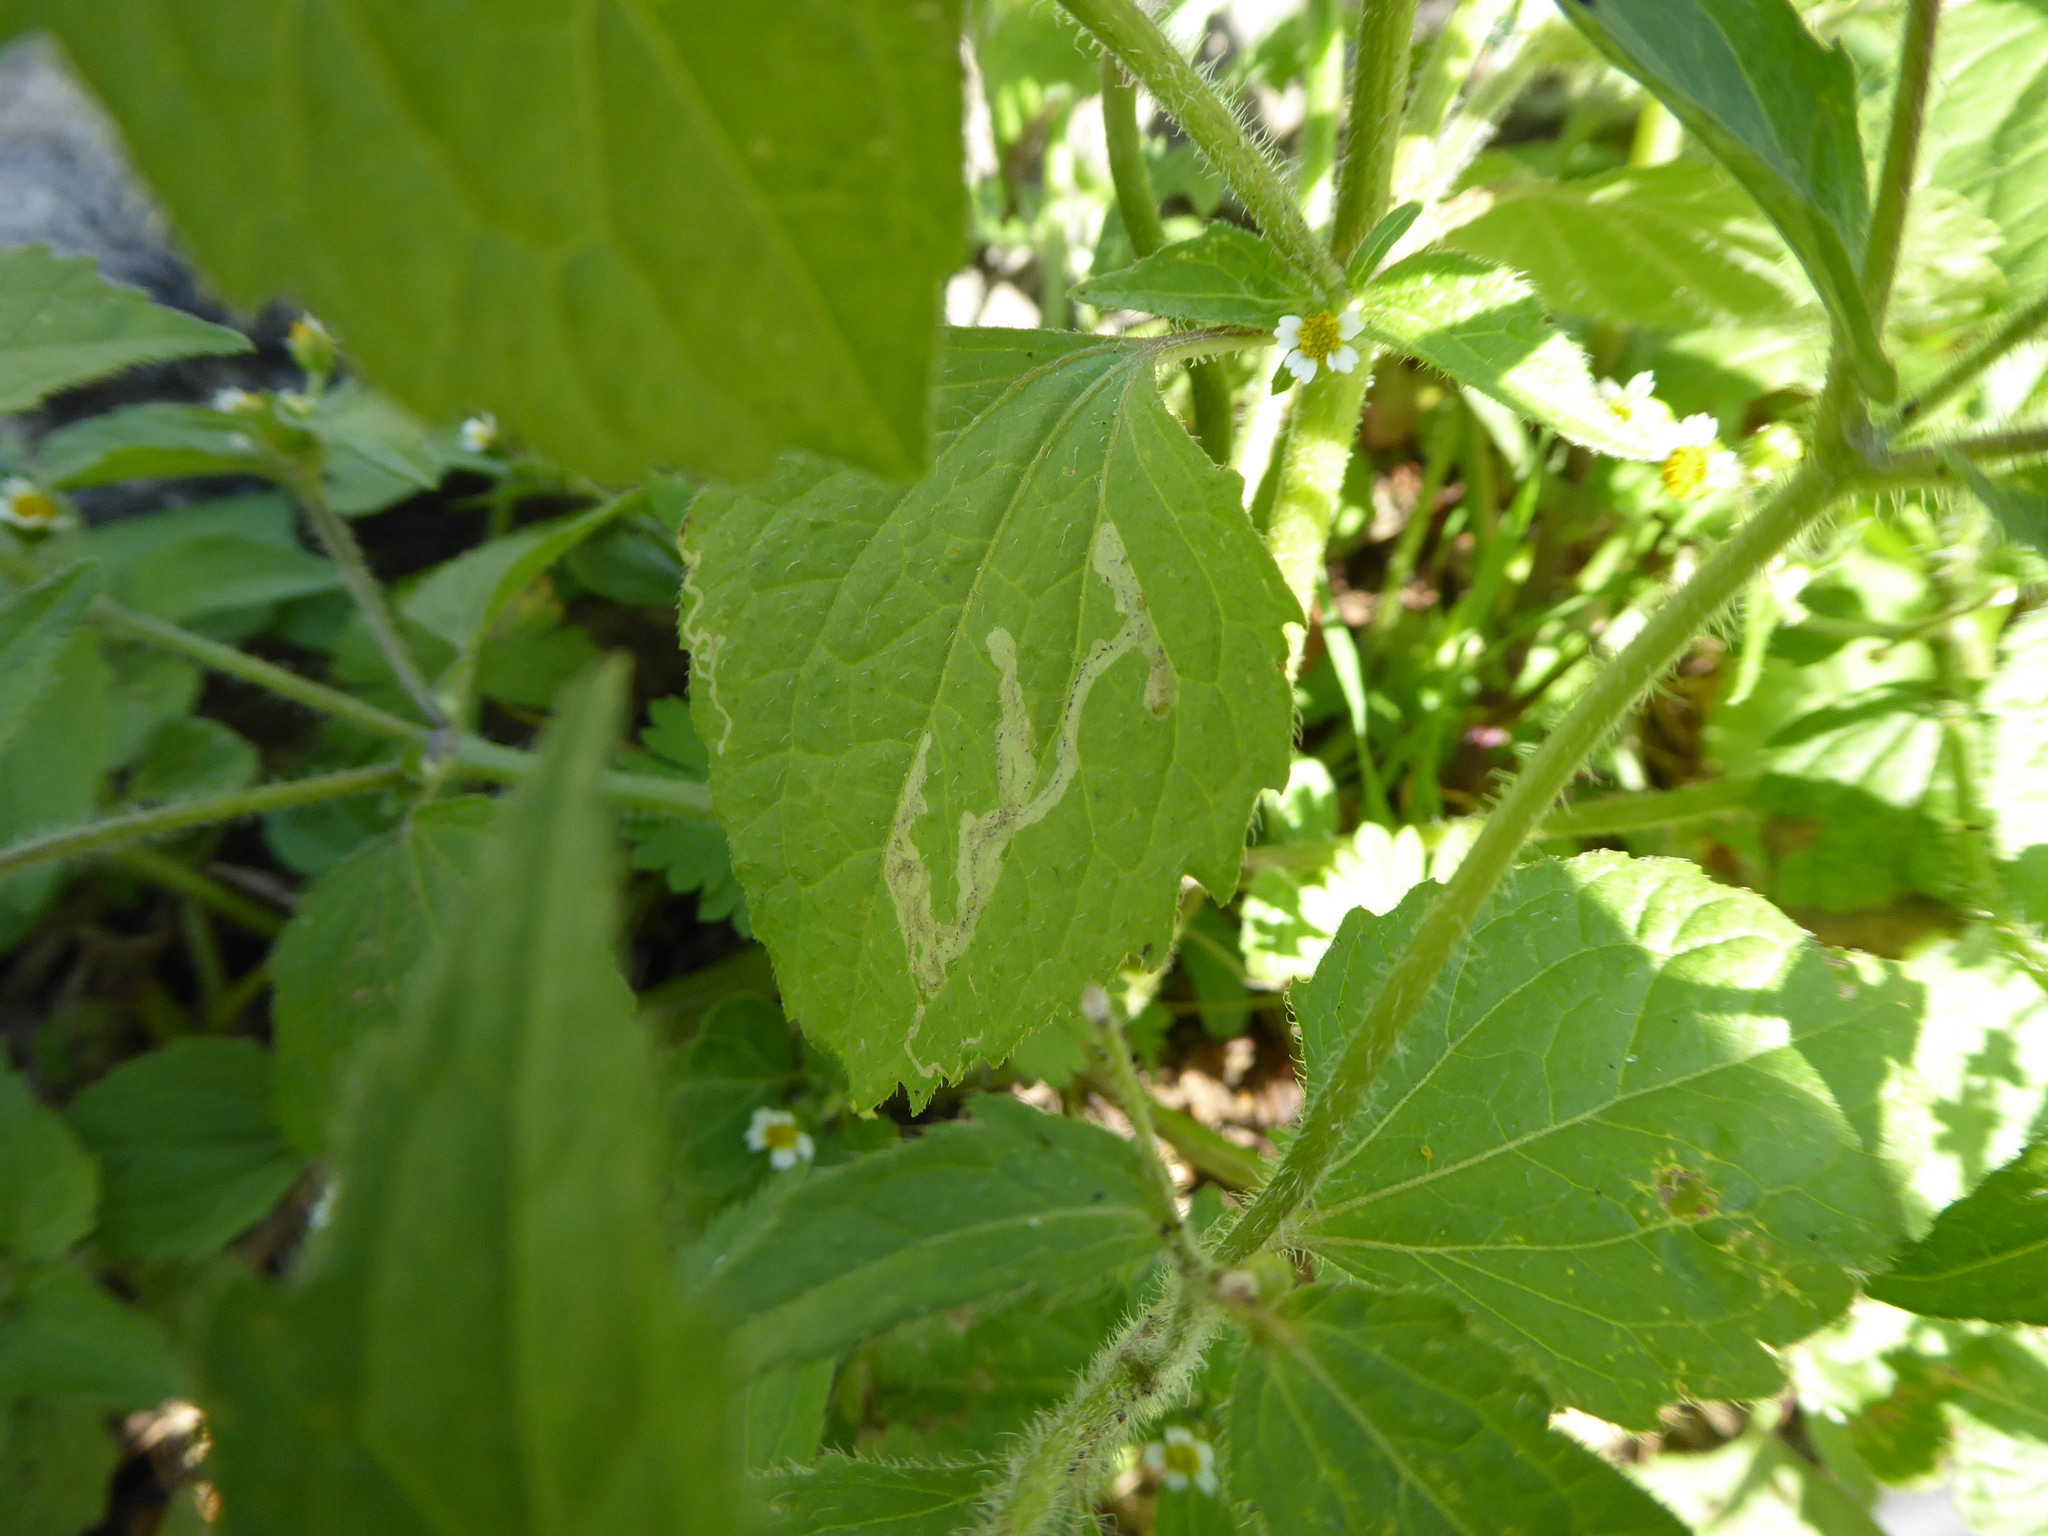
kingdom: Animalia
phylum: Arthropoda
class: Insecta
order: Diptera
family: Agromyzidae
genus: Phytomyza
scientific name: Phytomyza horticola
